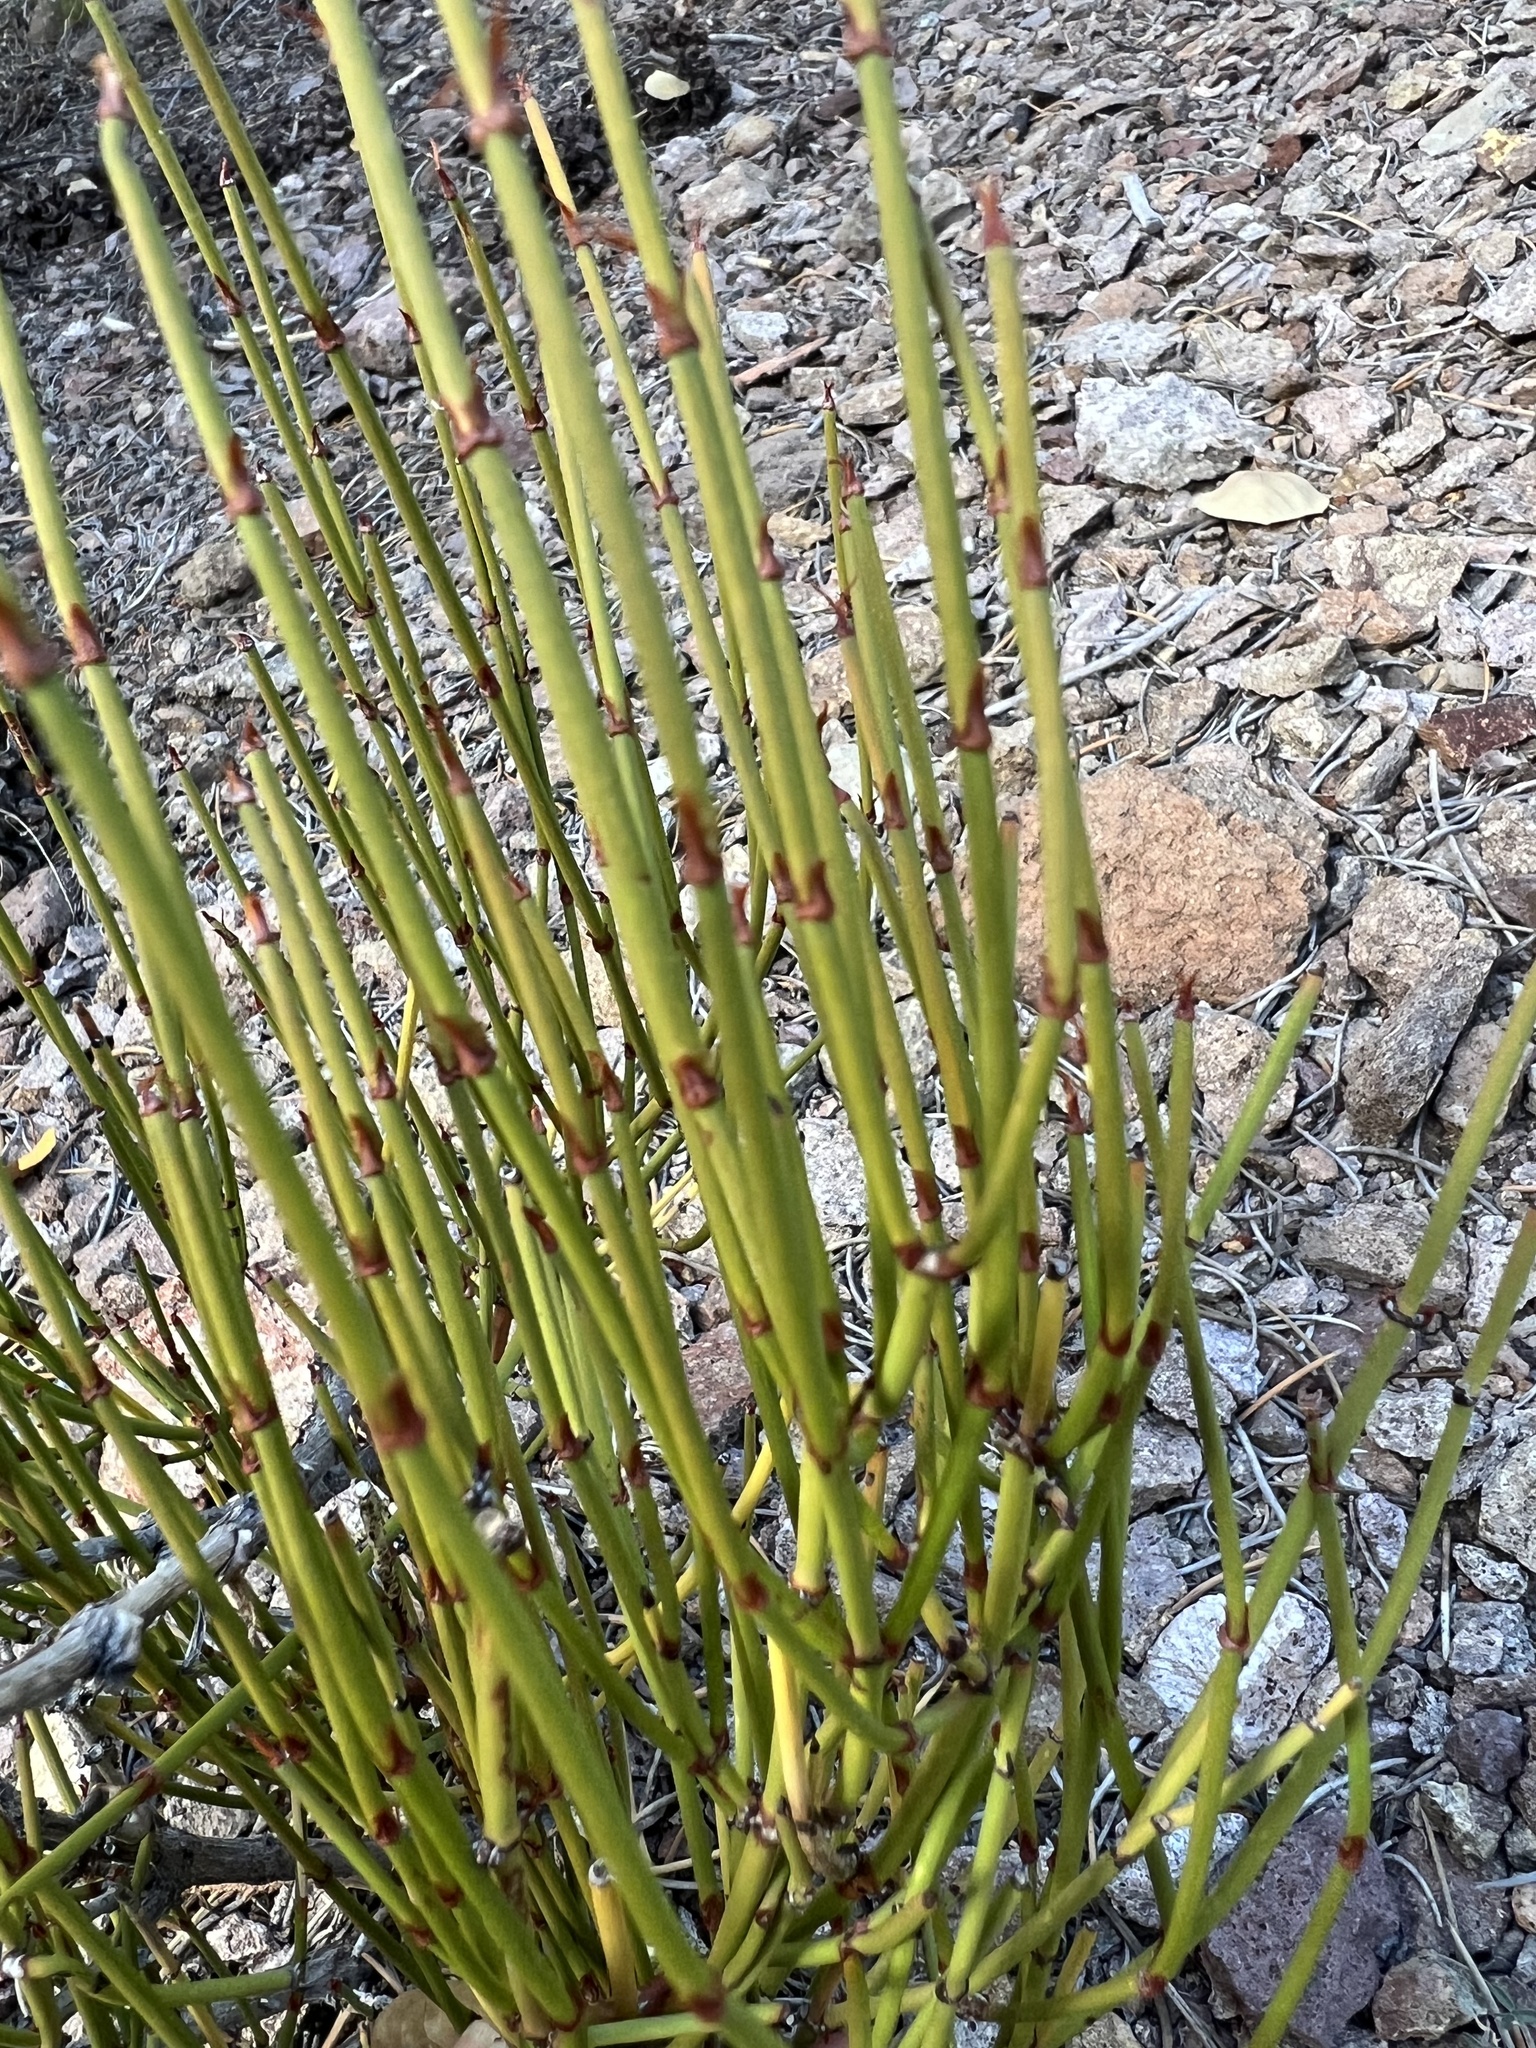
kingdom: Plantae
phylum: Tracheophyta
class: Gnetopsida
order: Ephedrales
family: Ephedraceae
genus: Ephedra
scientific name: Ephedra viridis
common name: Green ephedra
